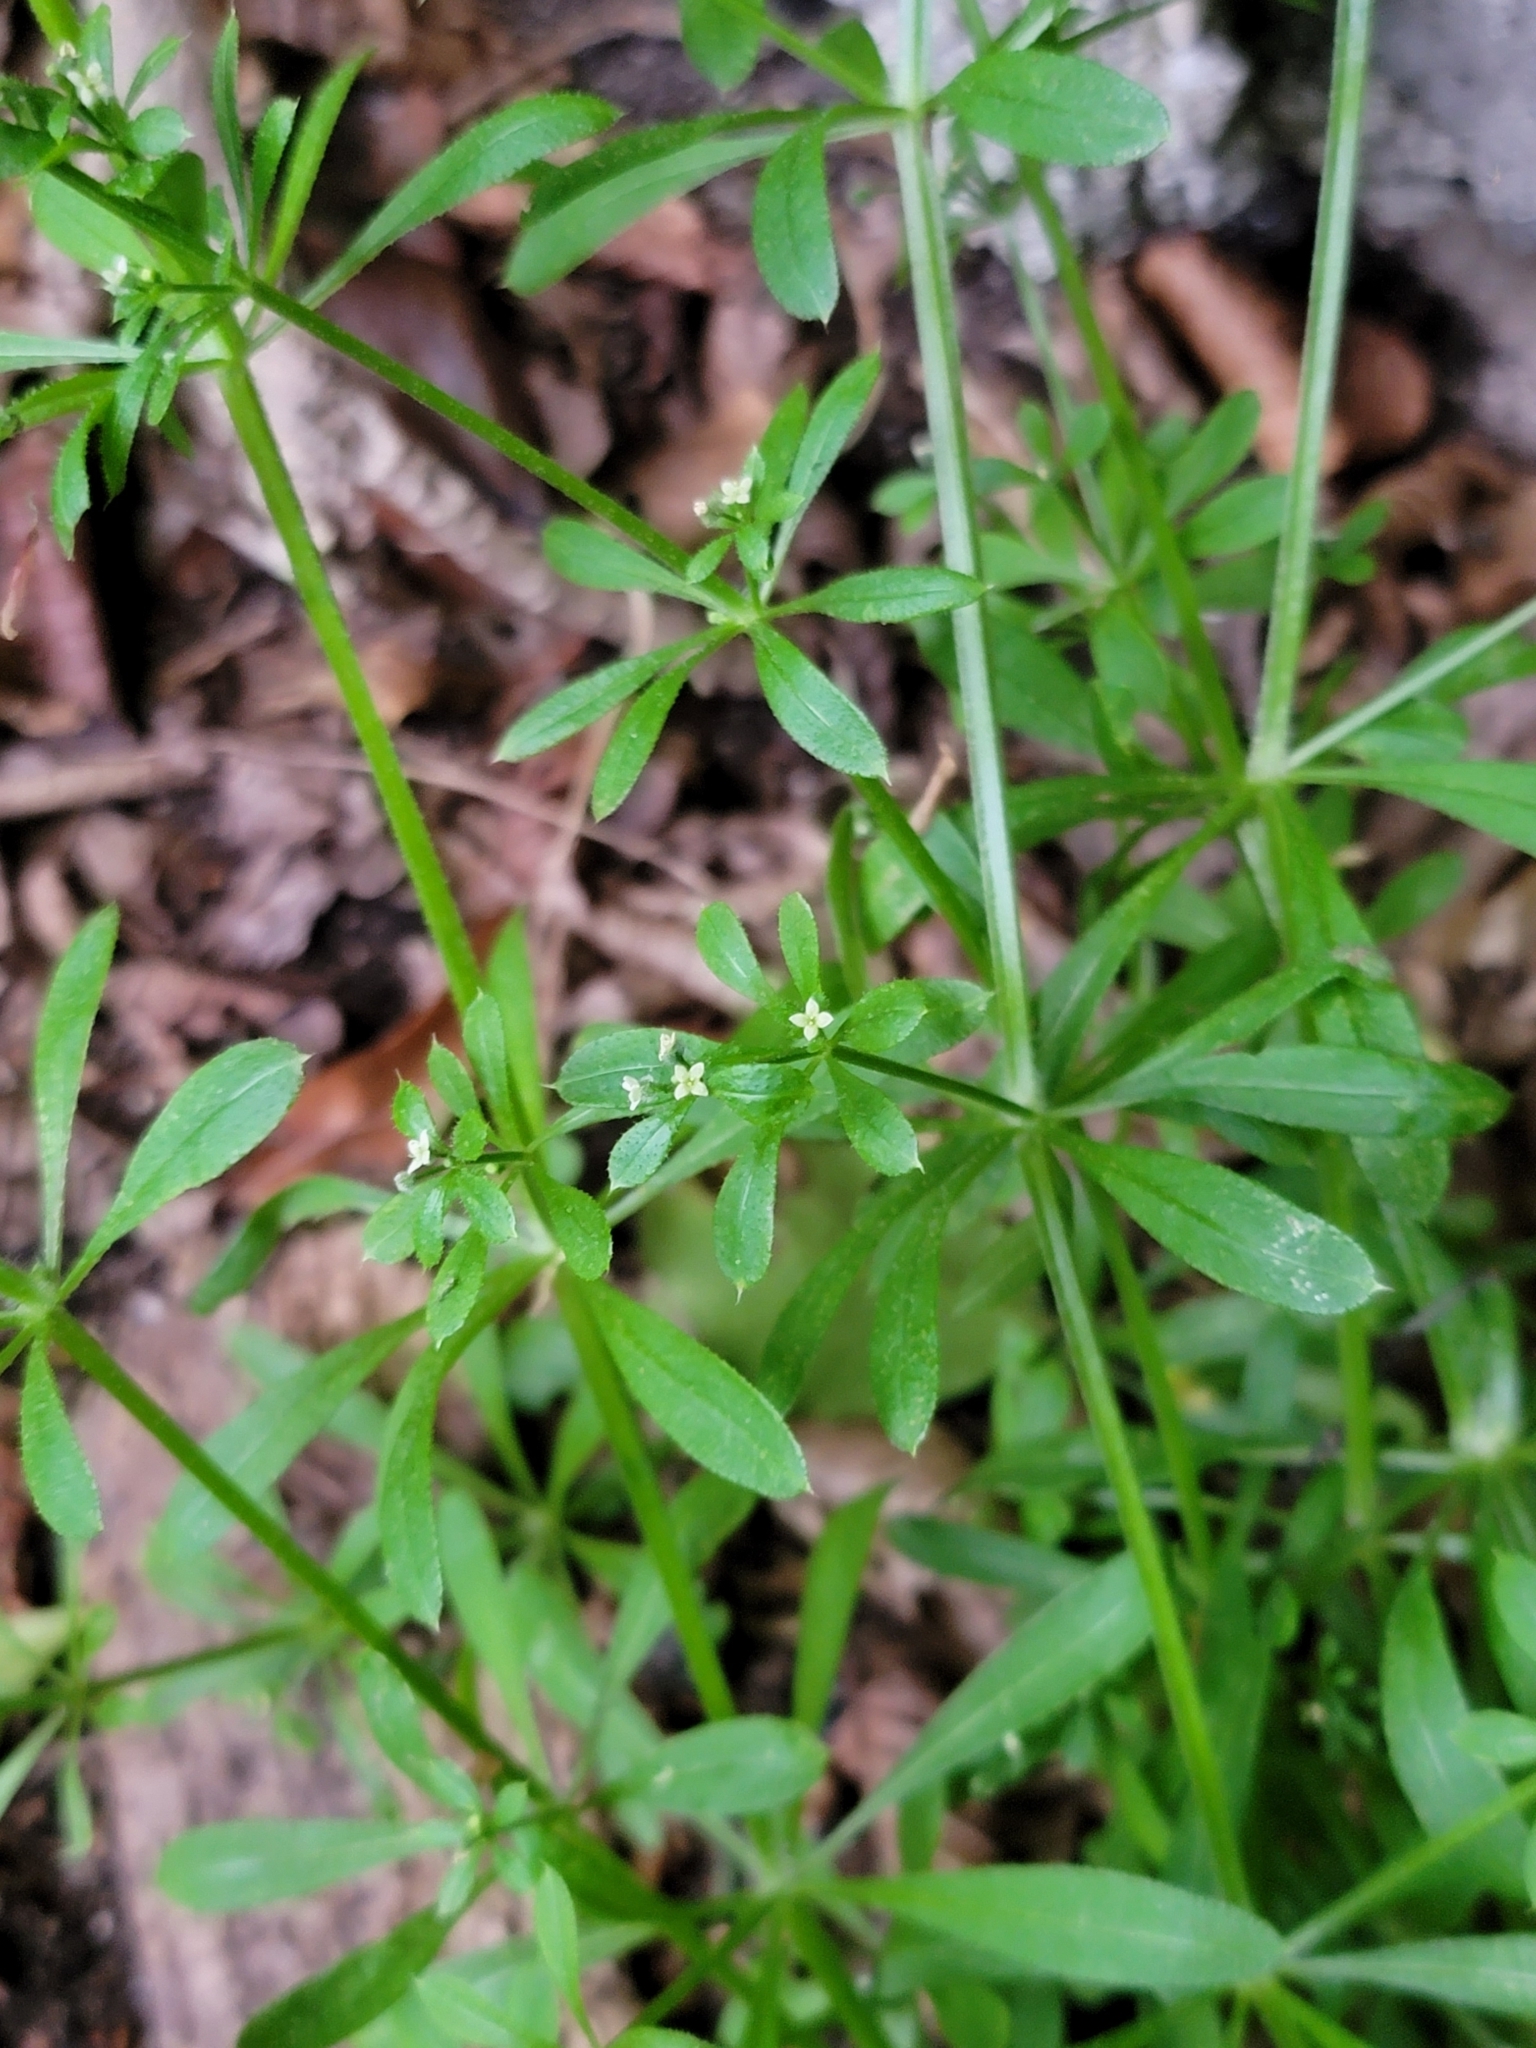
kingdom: Plantae
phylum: Tracheophyta
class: Magnoliopsida
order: Gentianales
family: Rubiaceae
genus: Galium
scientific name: Galium aparine
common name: Cleavers
